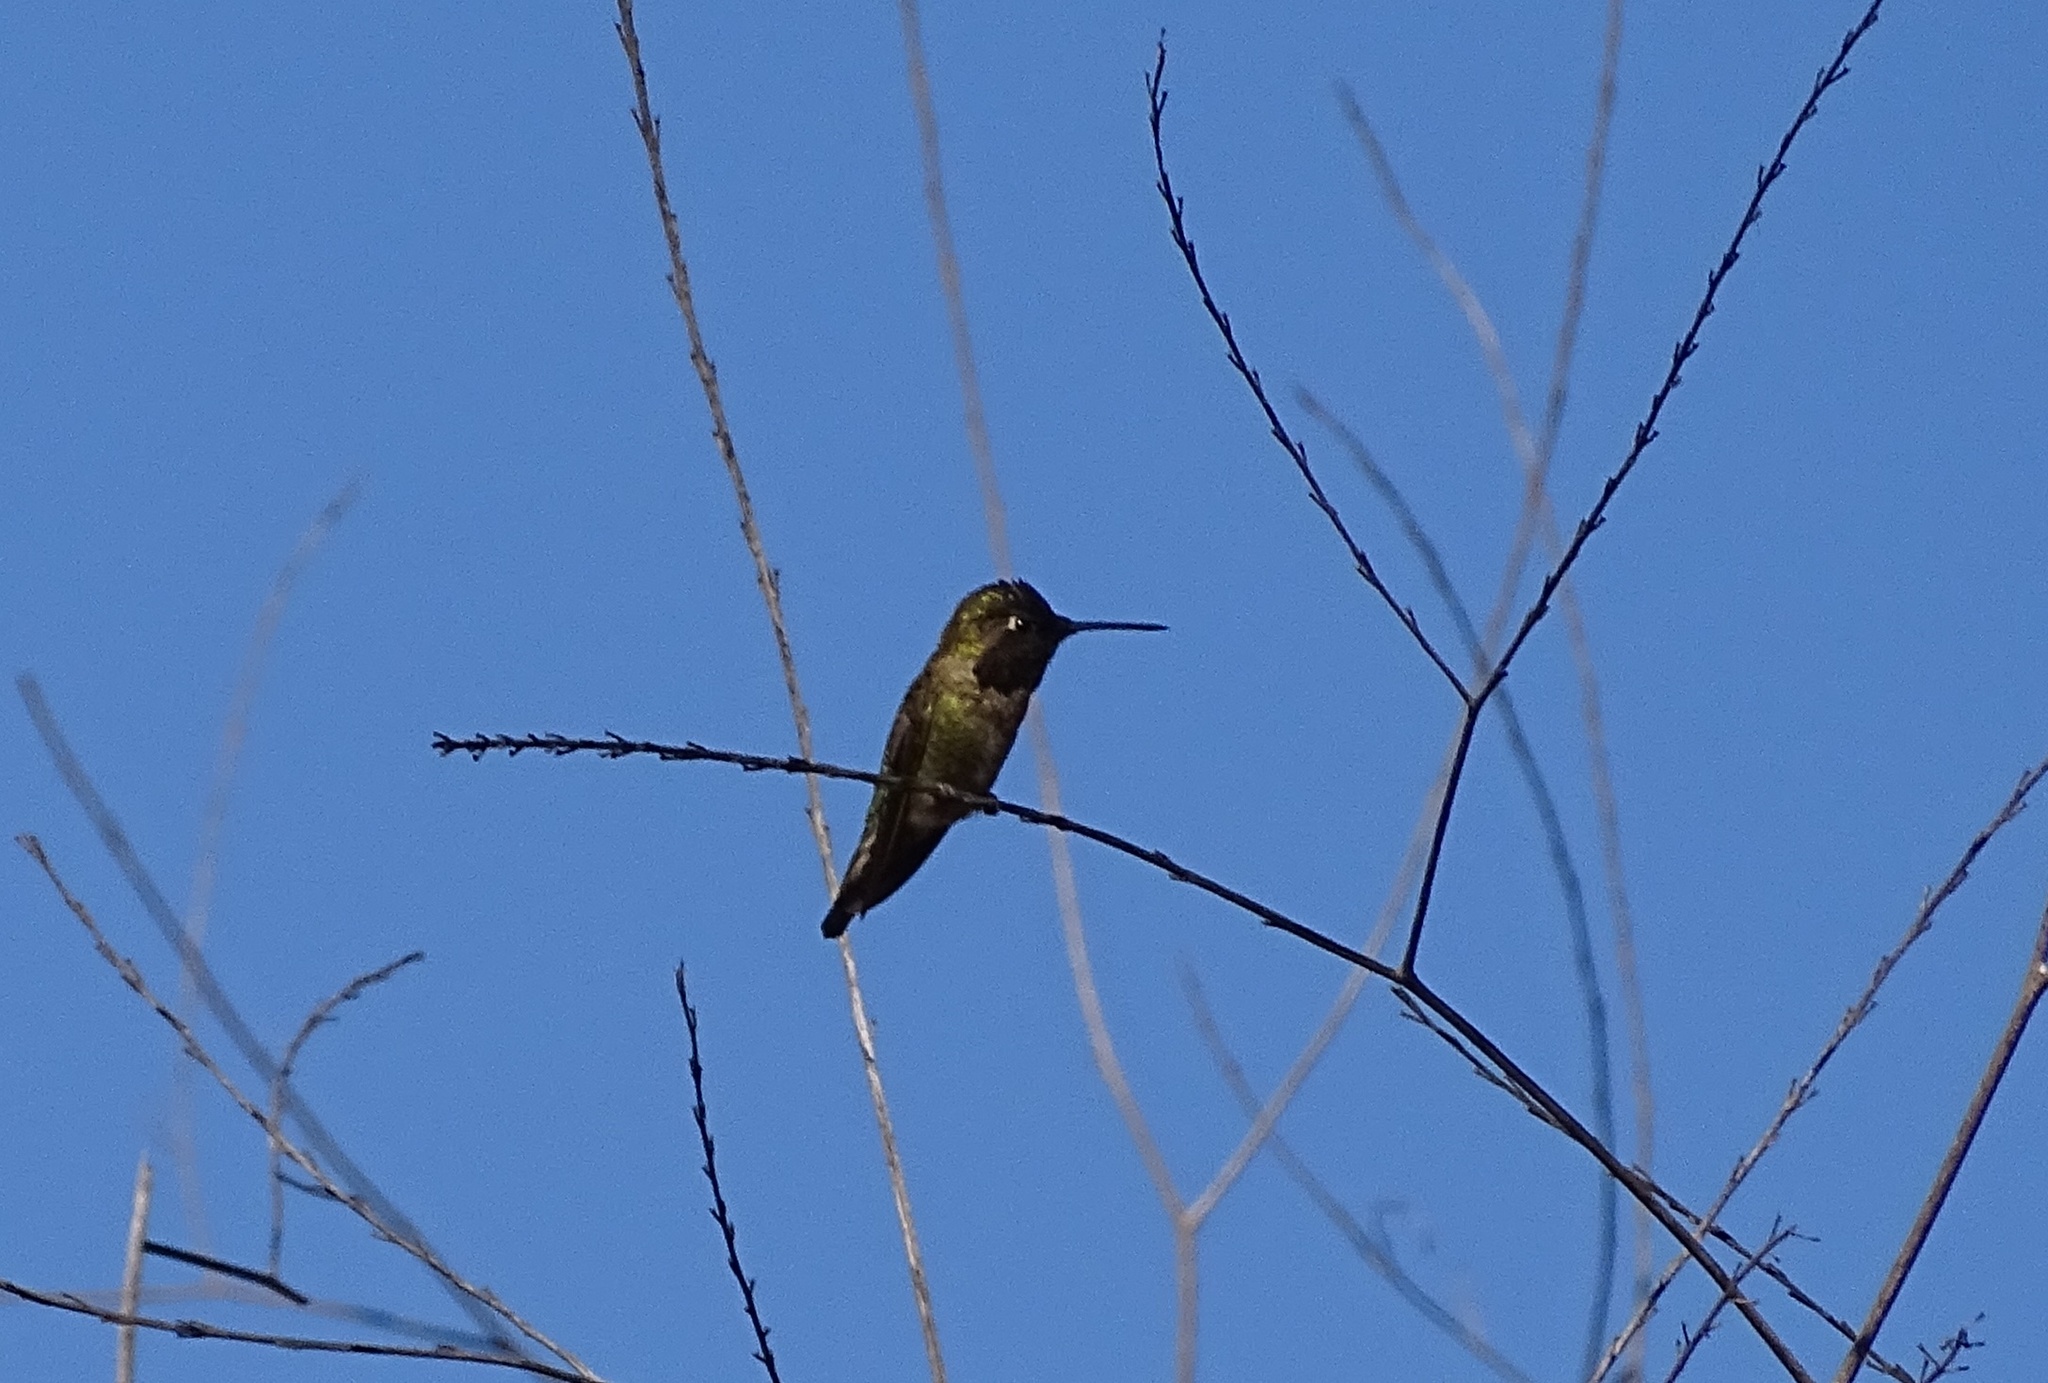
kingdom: Animalia
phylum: Chordata
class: Aves
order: Apodiformes
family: Trochilidae
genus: Calypte
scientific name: Calypte anna
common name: Anna's hummingbird
